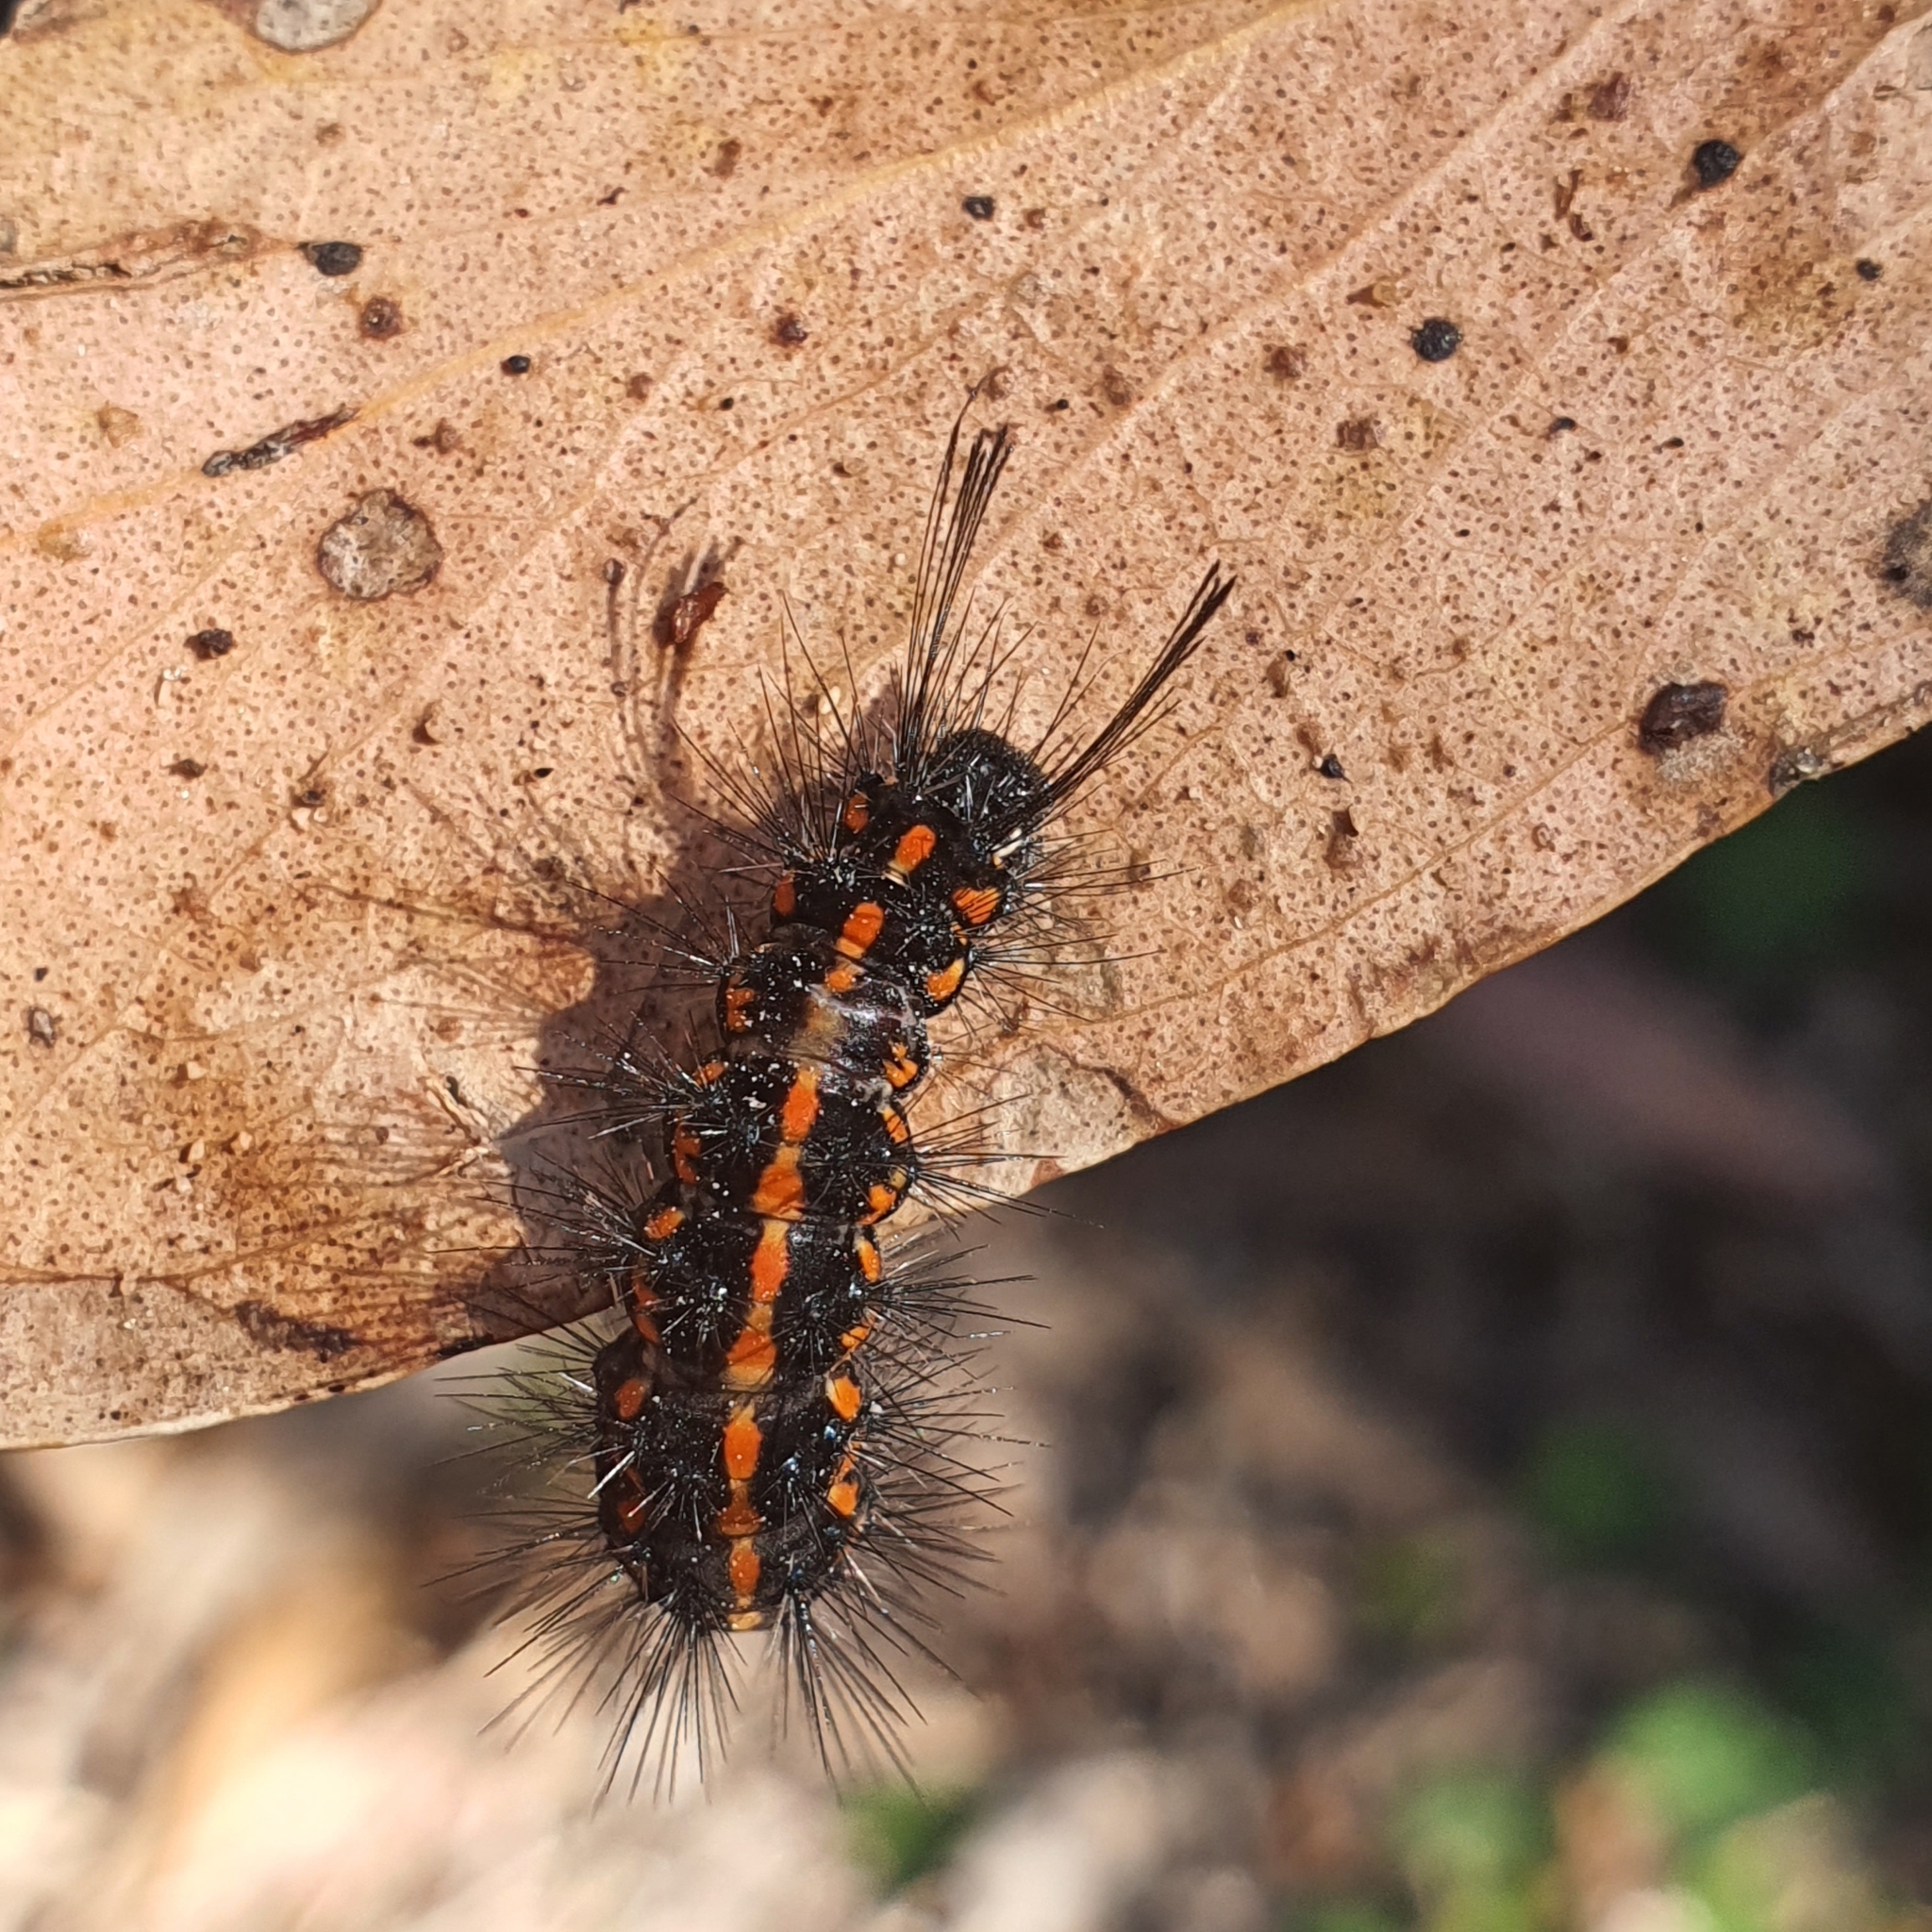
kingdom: Animalia
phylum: Arthropoda
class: Insecta
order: Lepidoptera
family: Erebidae
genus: Nyctemera
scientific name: Nyctemera amicus
